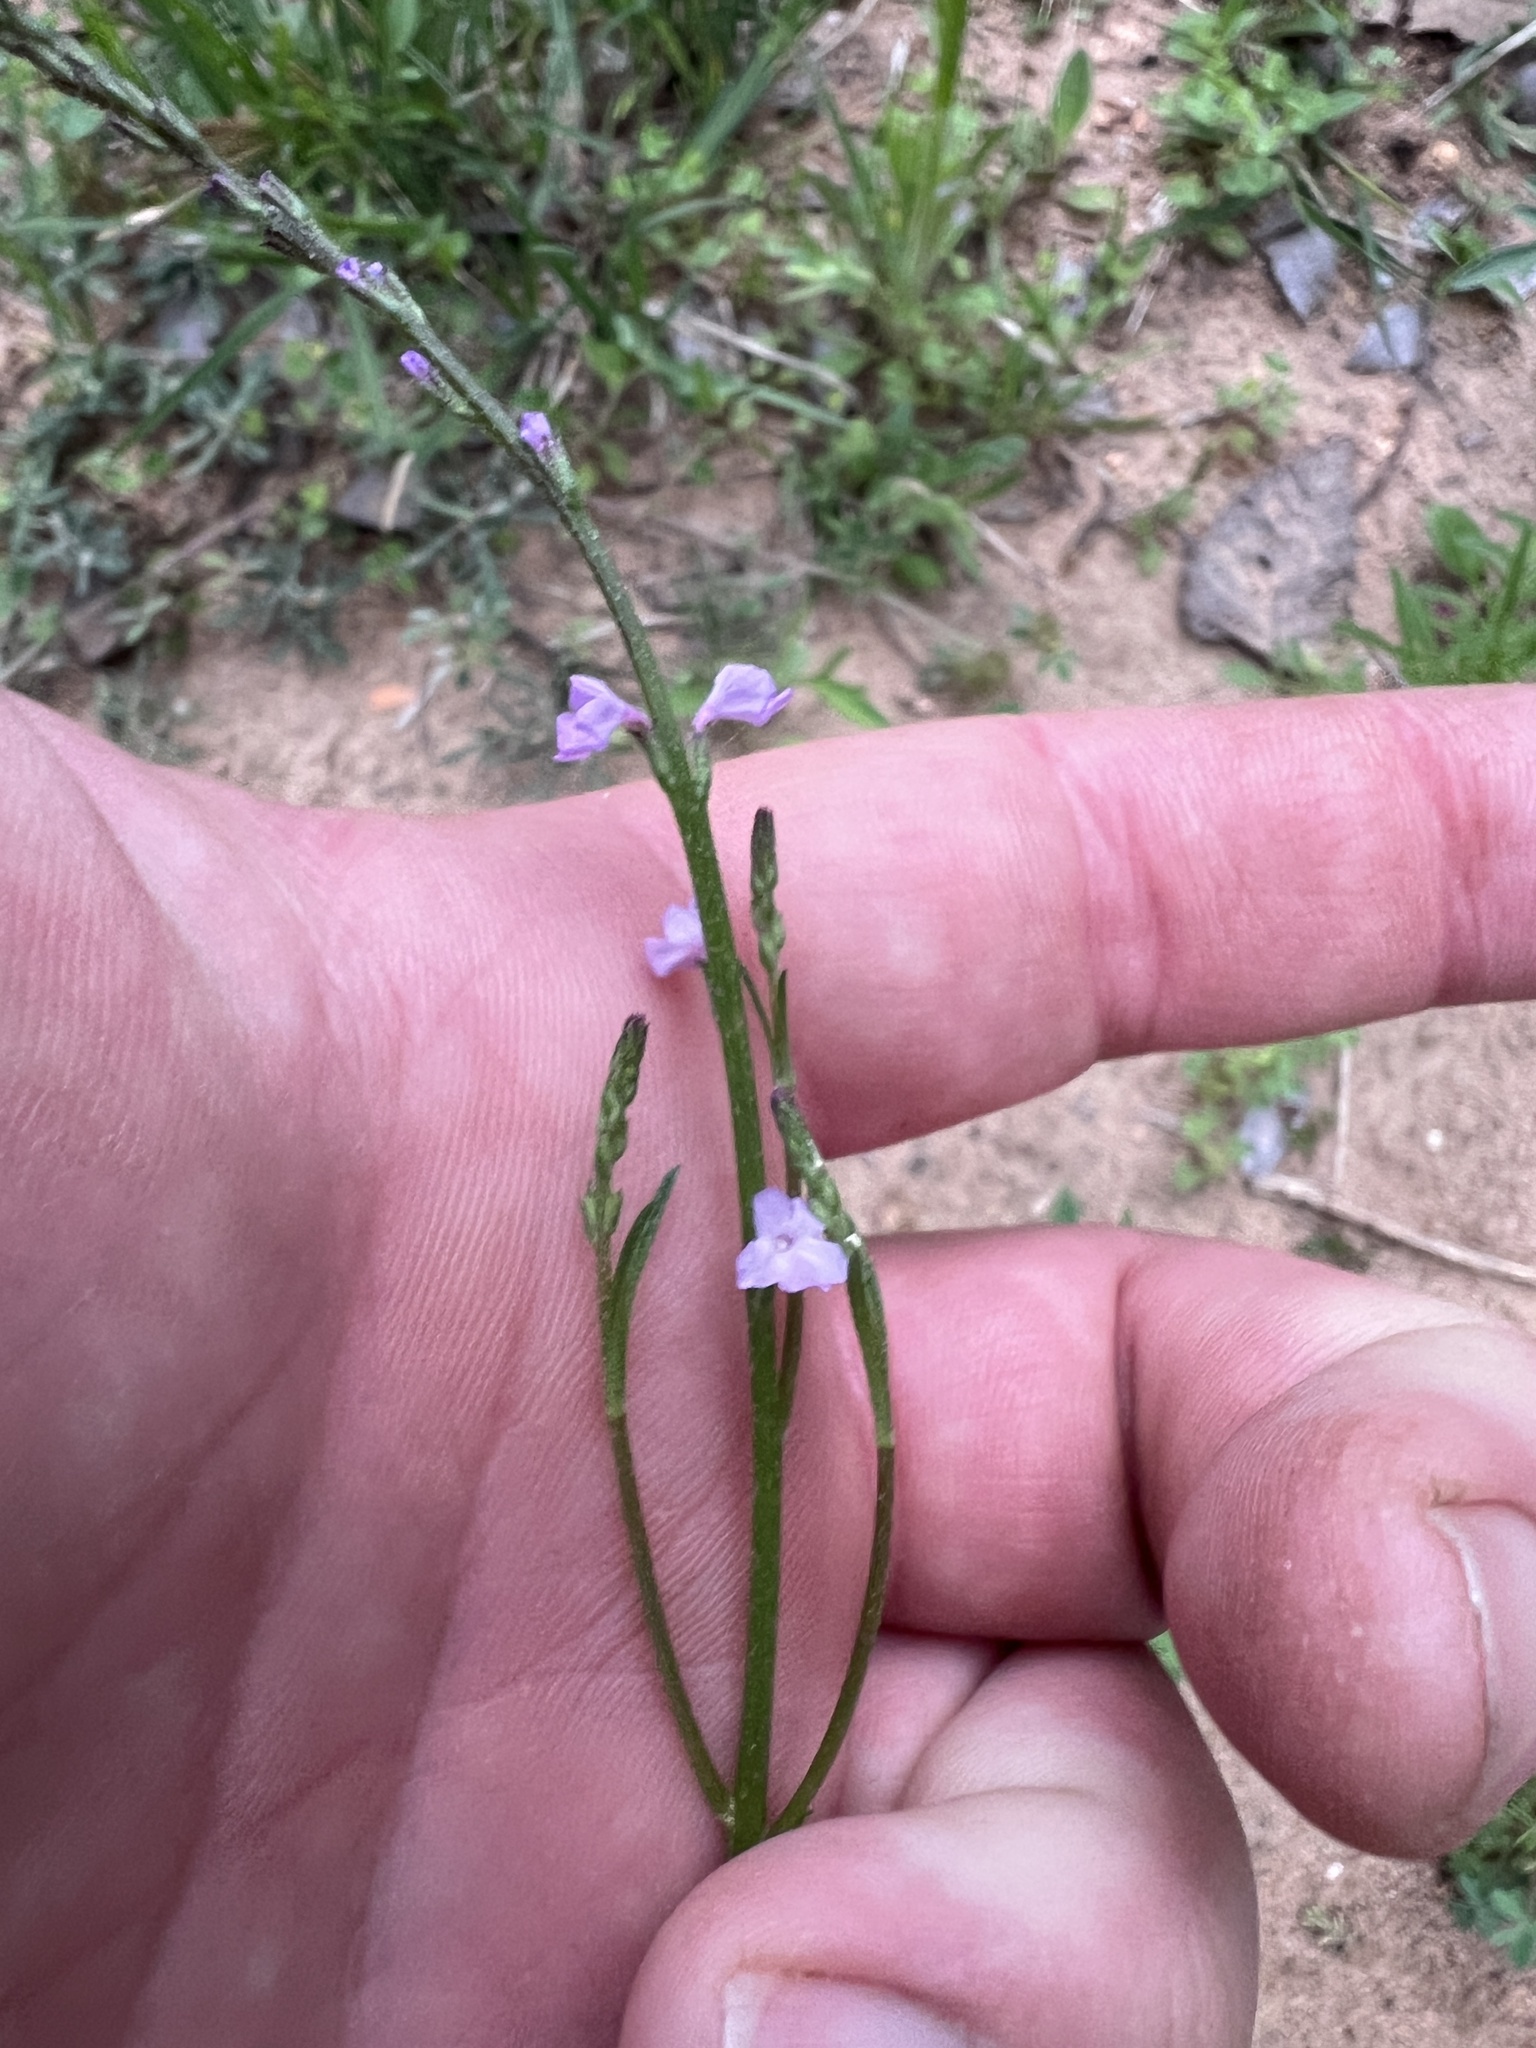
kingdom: Plantae
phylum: Tracheophyta
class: Magnoliopsida
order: Lamiales
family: Verbenaceae
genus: Verbena
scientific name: Verbena halei
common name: Texas vervain
